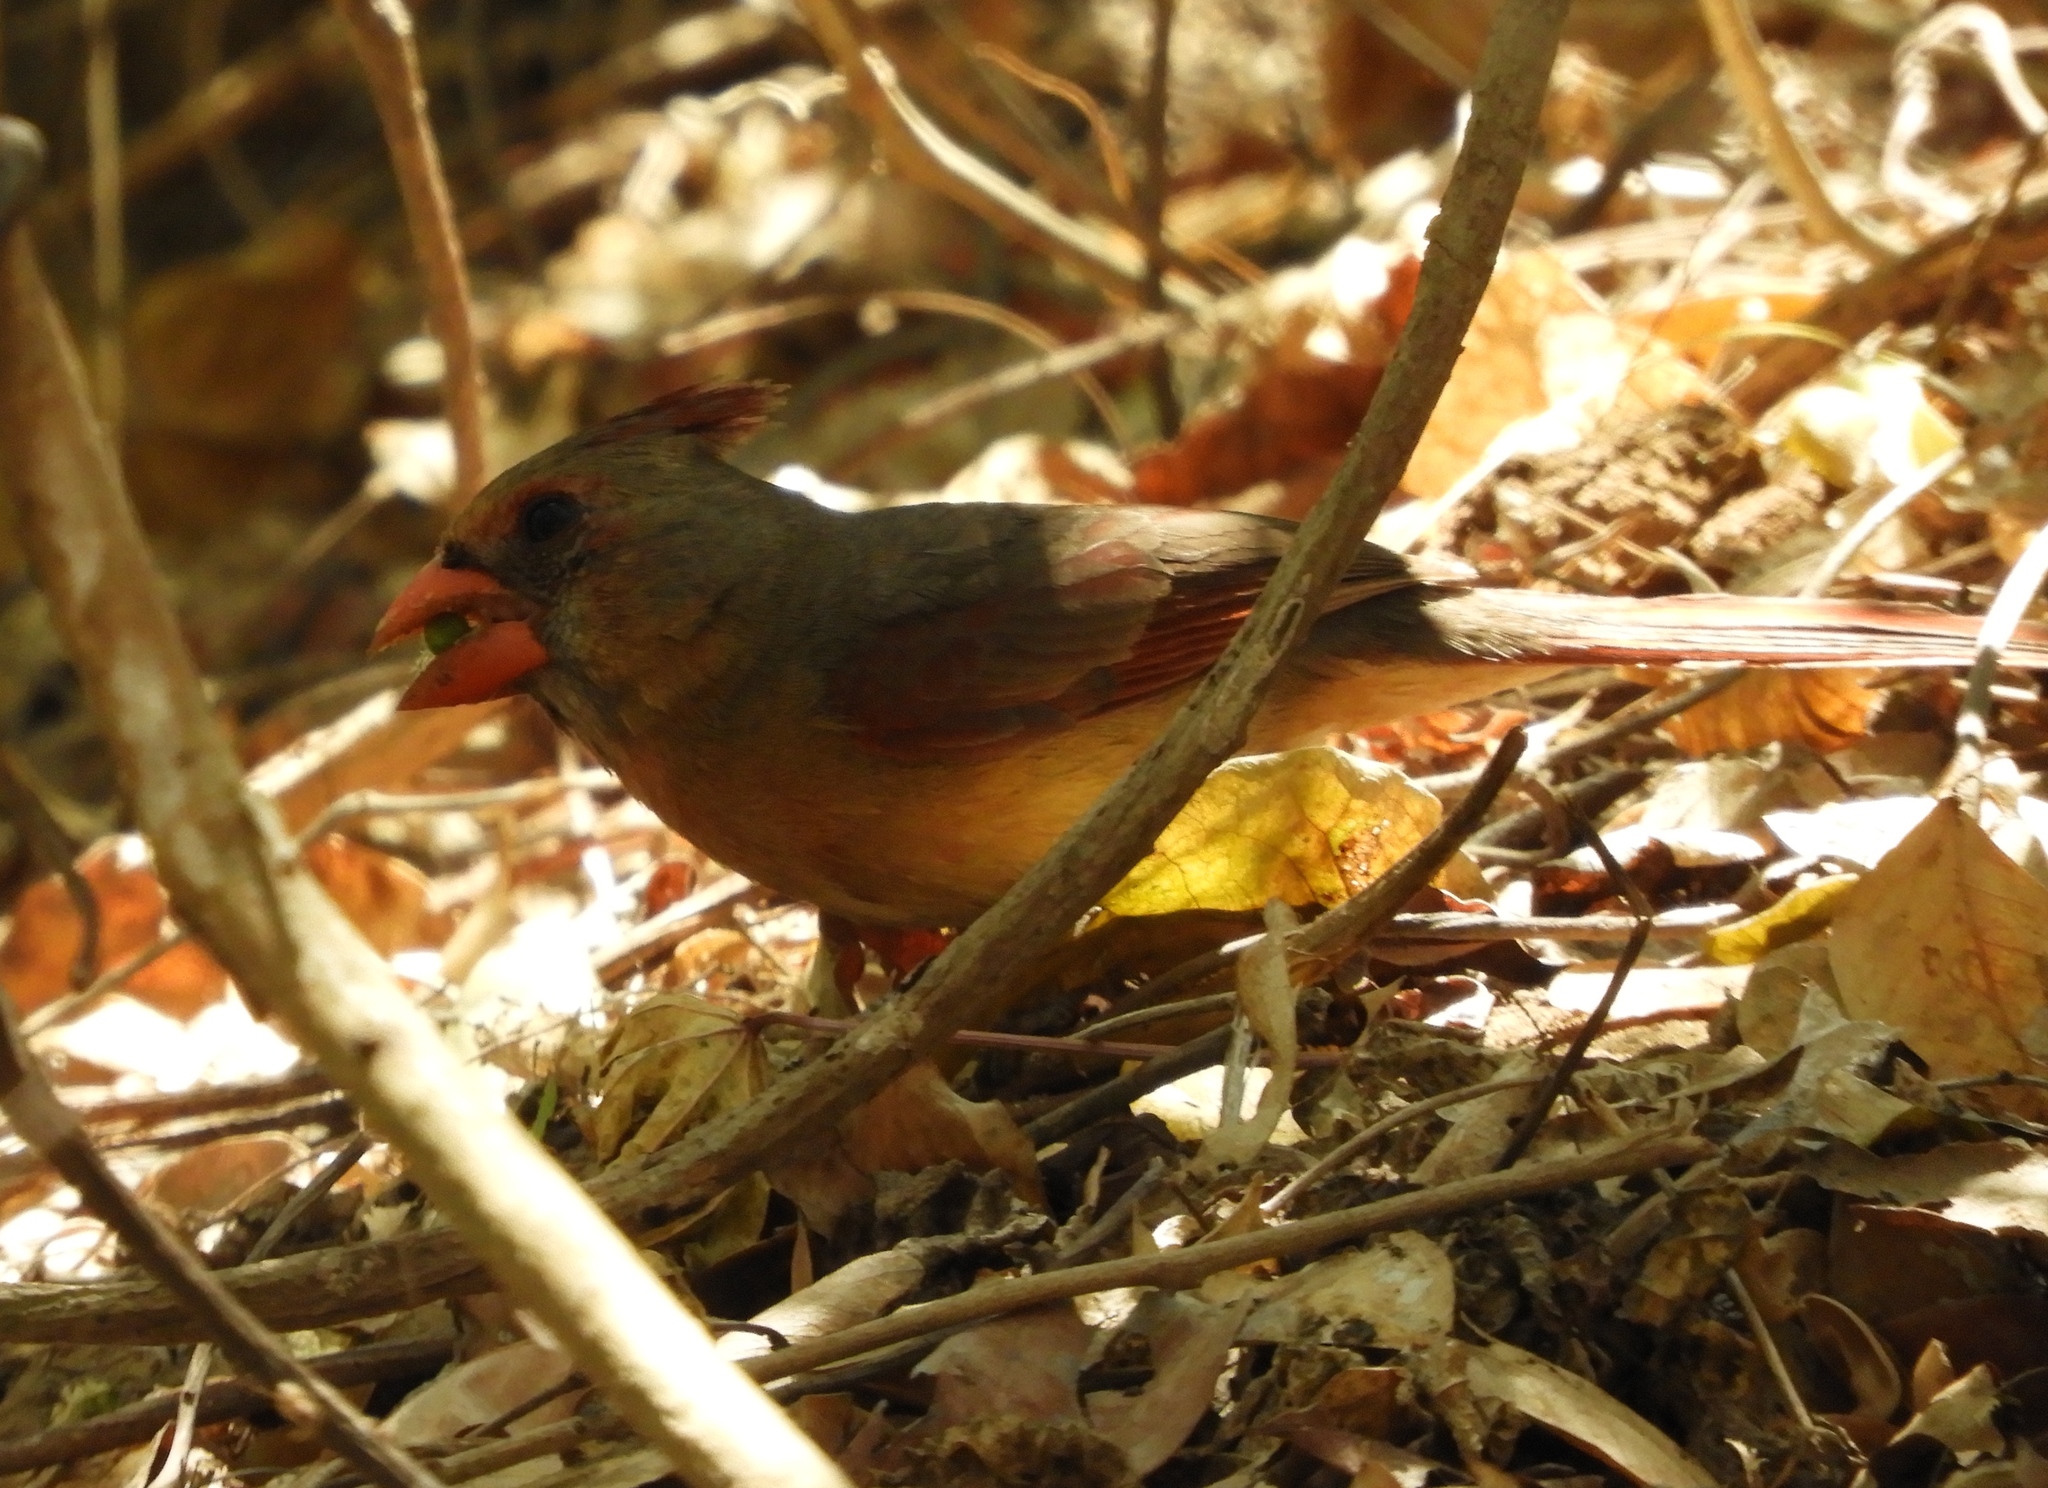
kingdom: Animalia
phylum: Chordata
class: Aves
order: Passeriformes
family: Cardinalidae
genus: Cardinalis
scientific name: Cardinalis sinuatus
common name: Pyrrhuloxia
